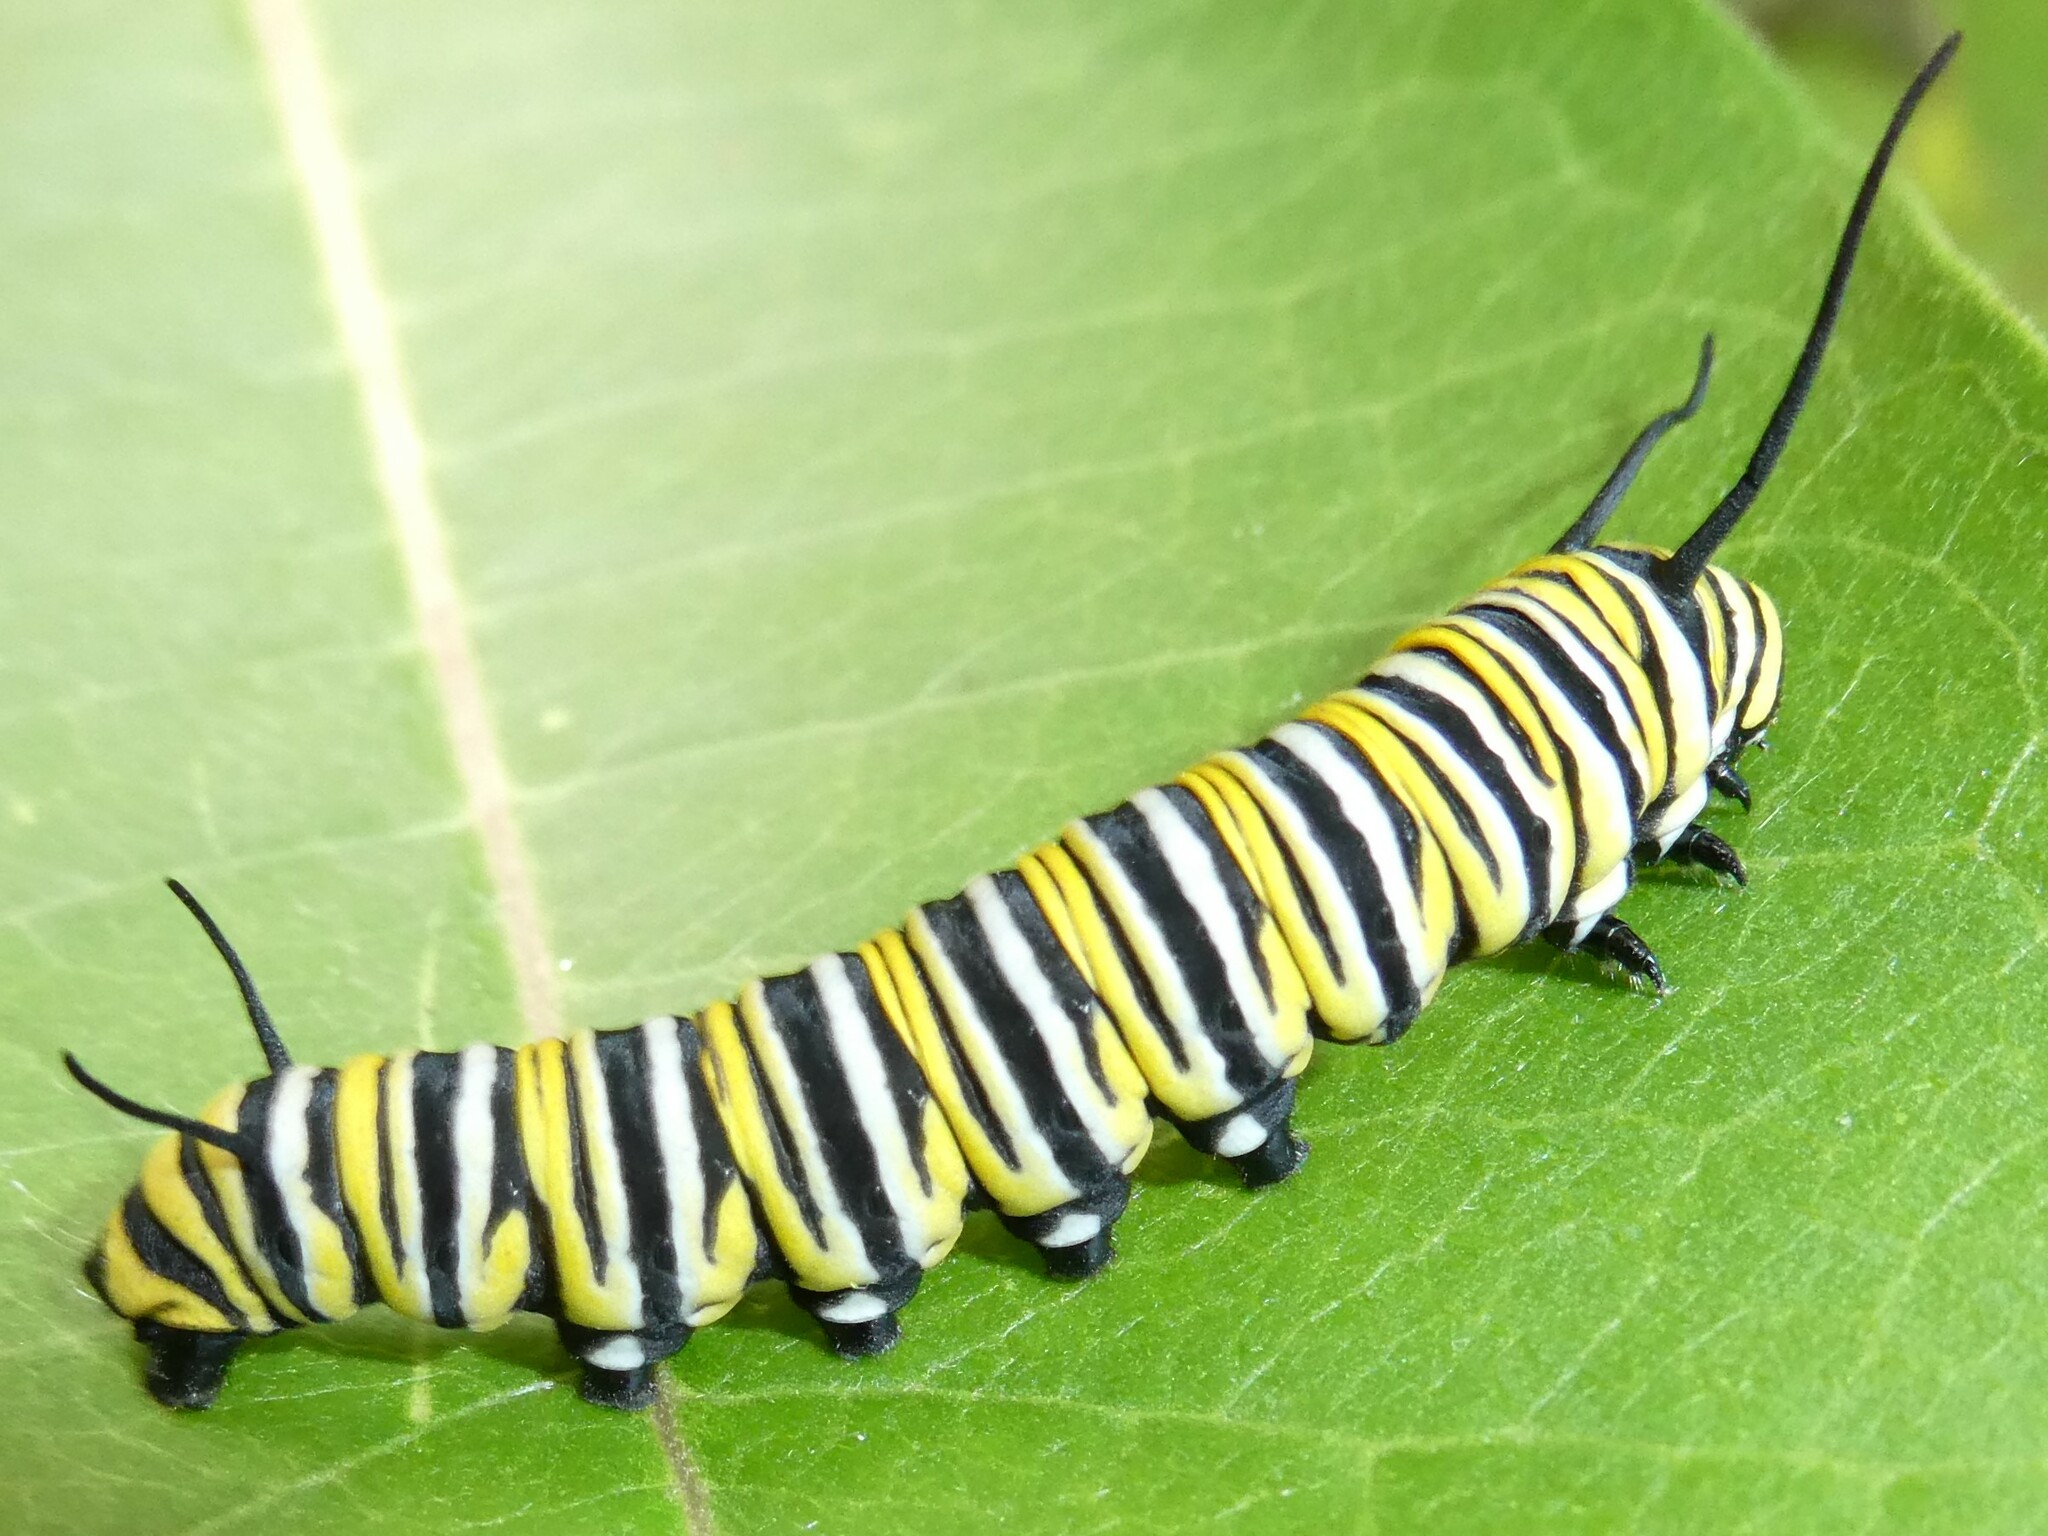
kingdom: Animalia
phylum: Arthropoda
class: Insecta
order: Lepidoptera
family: Nymphalidae
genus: Danaus
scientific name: Danaus plexippus
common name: Monarch
